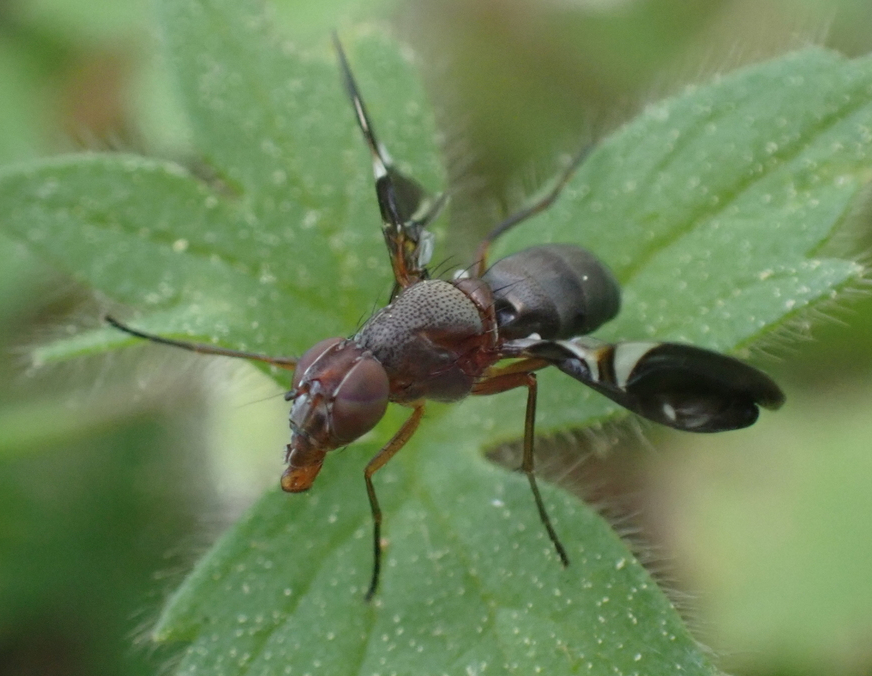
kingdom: Animalia
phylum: Arthropoda
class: Insecta
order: Diptera
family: Ulidiidae
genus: Delphinia
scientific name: Delphinia picta
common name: Common picture-winged fly
